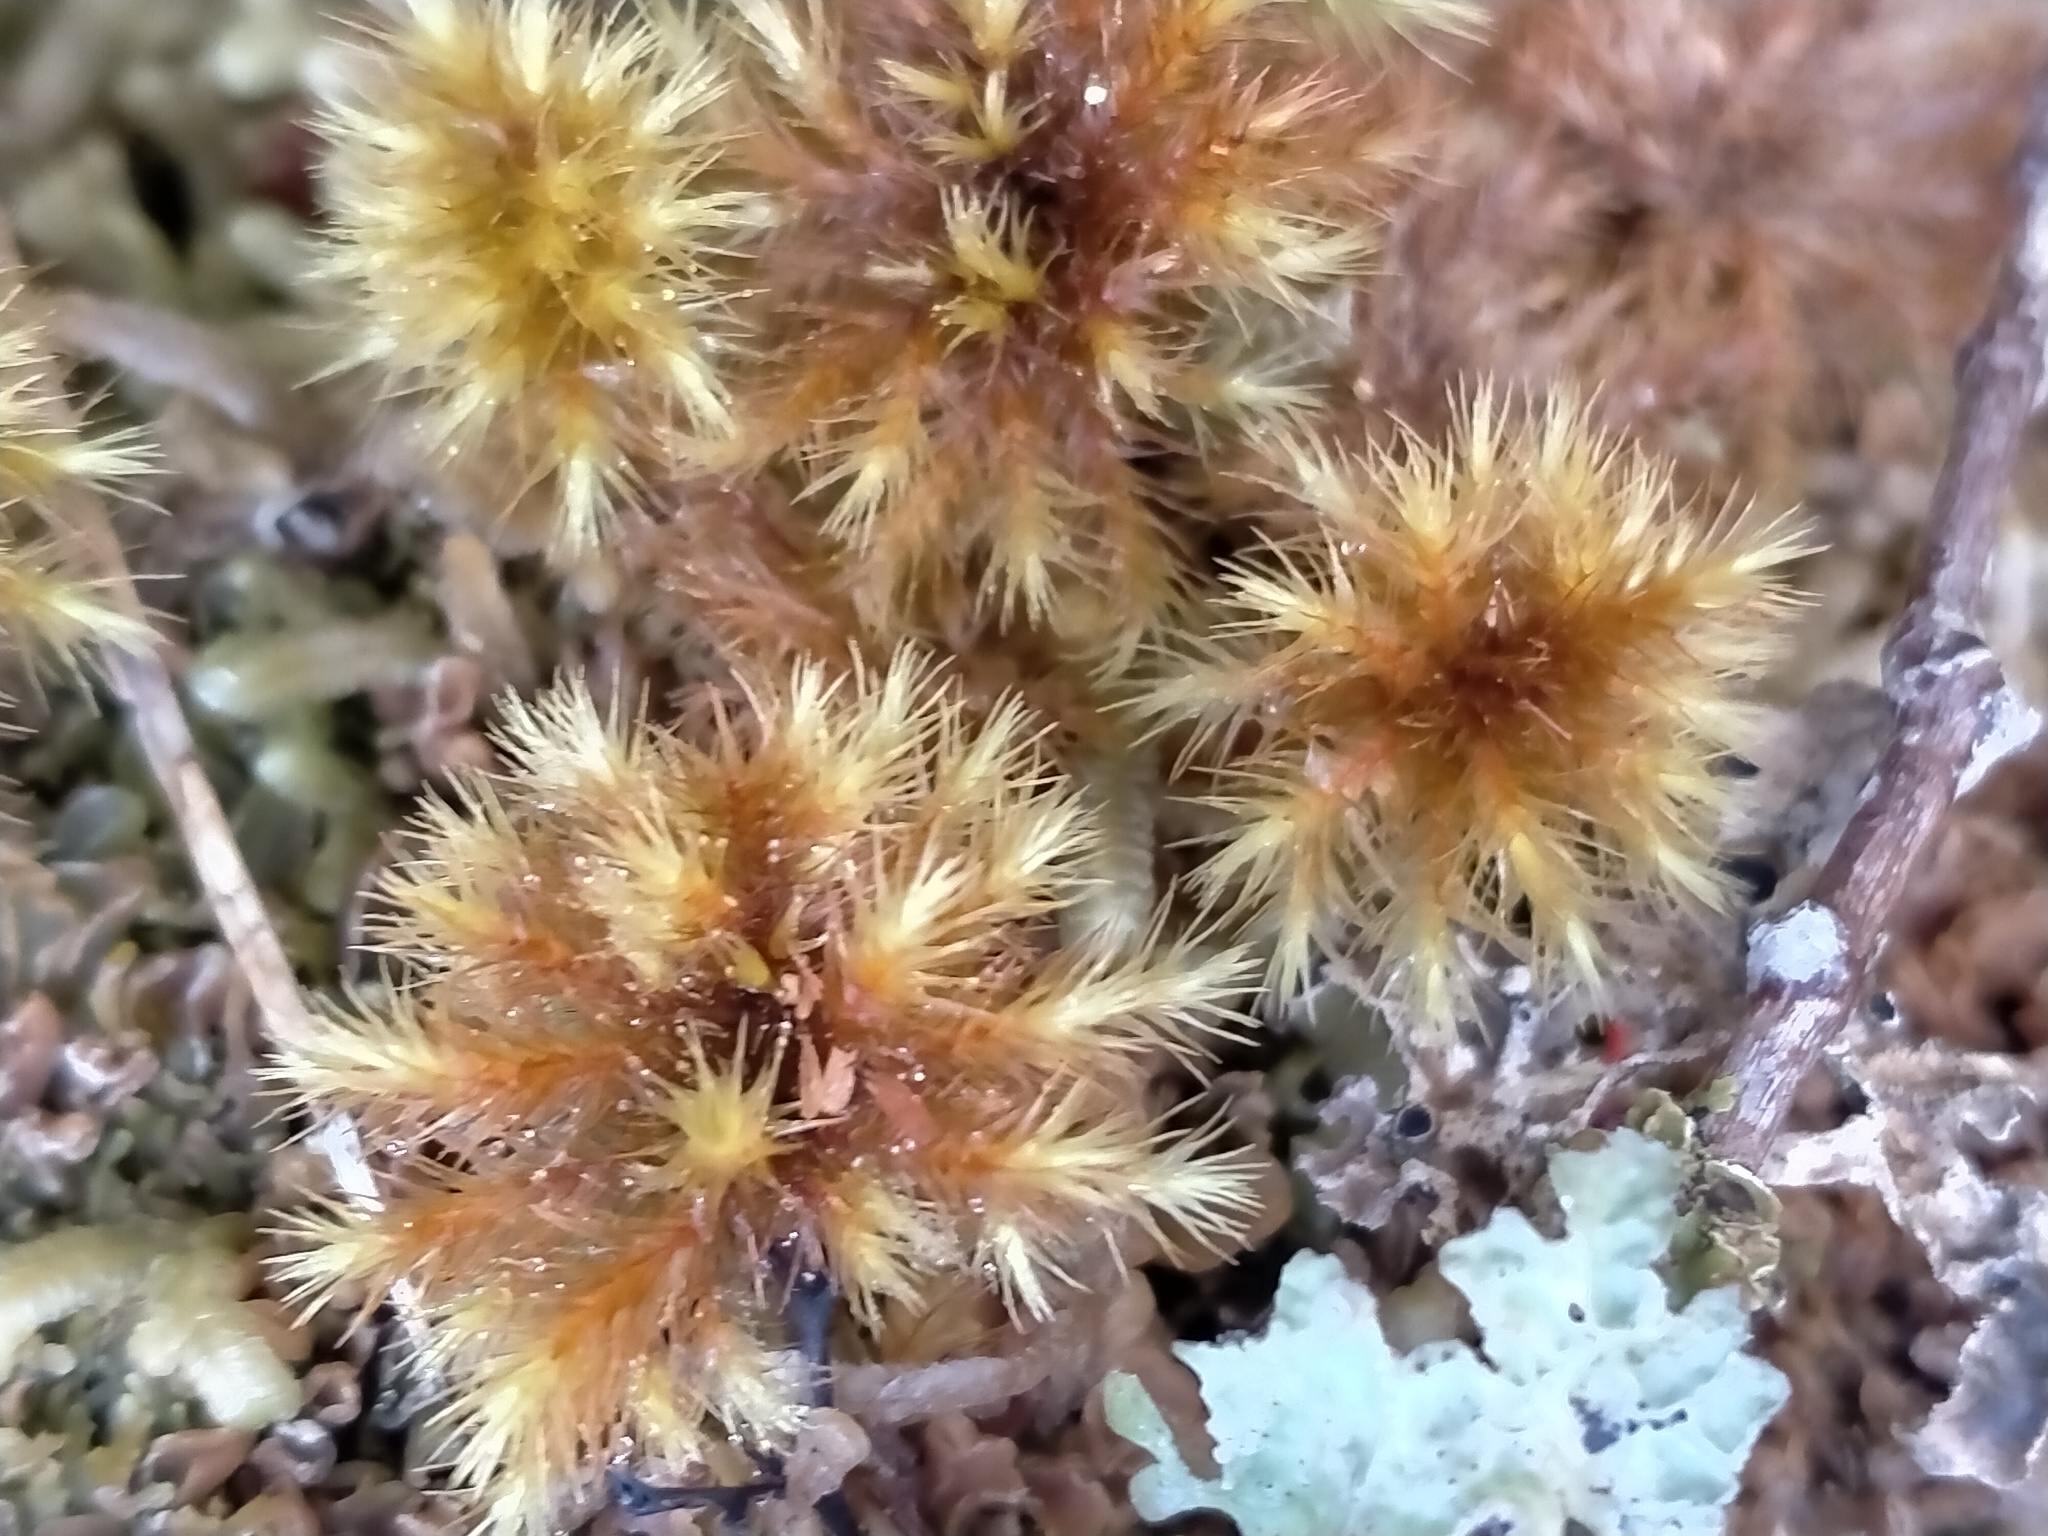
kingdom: Plantae
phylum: Bryophyta
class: Bryopsida
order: Hypnodendrales
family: Spiridentaceae
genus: Mniodendron
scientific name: Mniodendron colensoi
